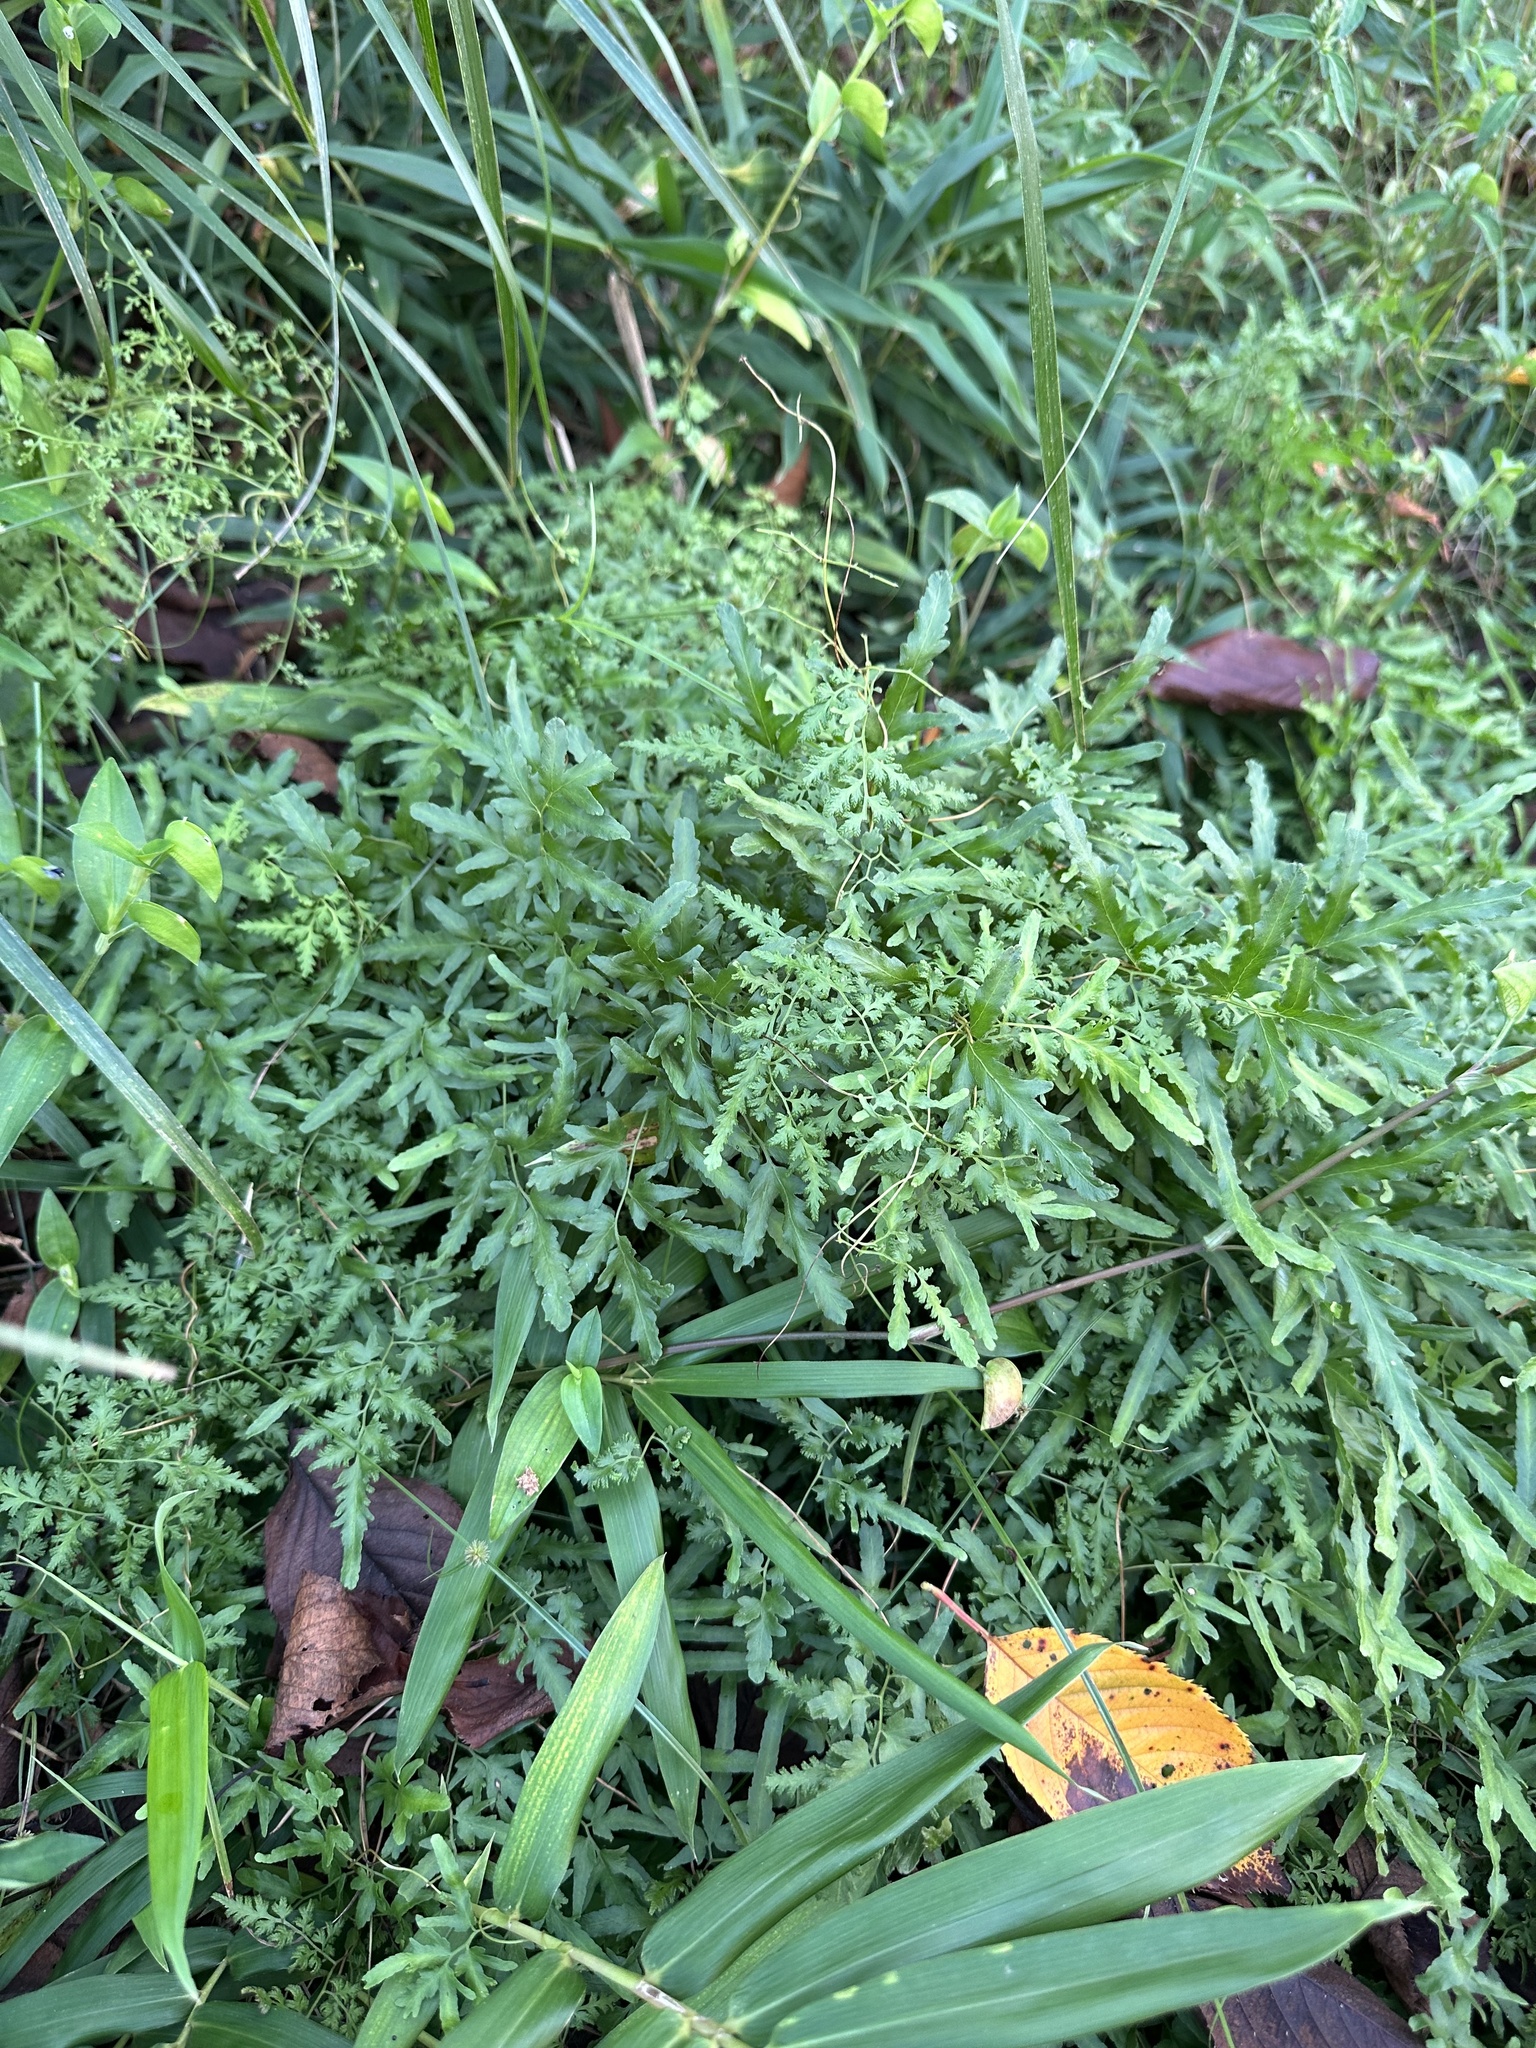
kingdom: Plantae
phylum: Tracheophyta
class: Polypodiopsida
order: Schizaeales
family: Lygodiaceae
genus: Lygodium
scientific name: Lygodium japonicum
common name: Japanese climbing fern
